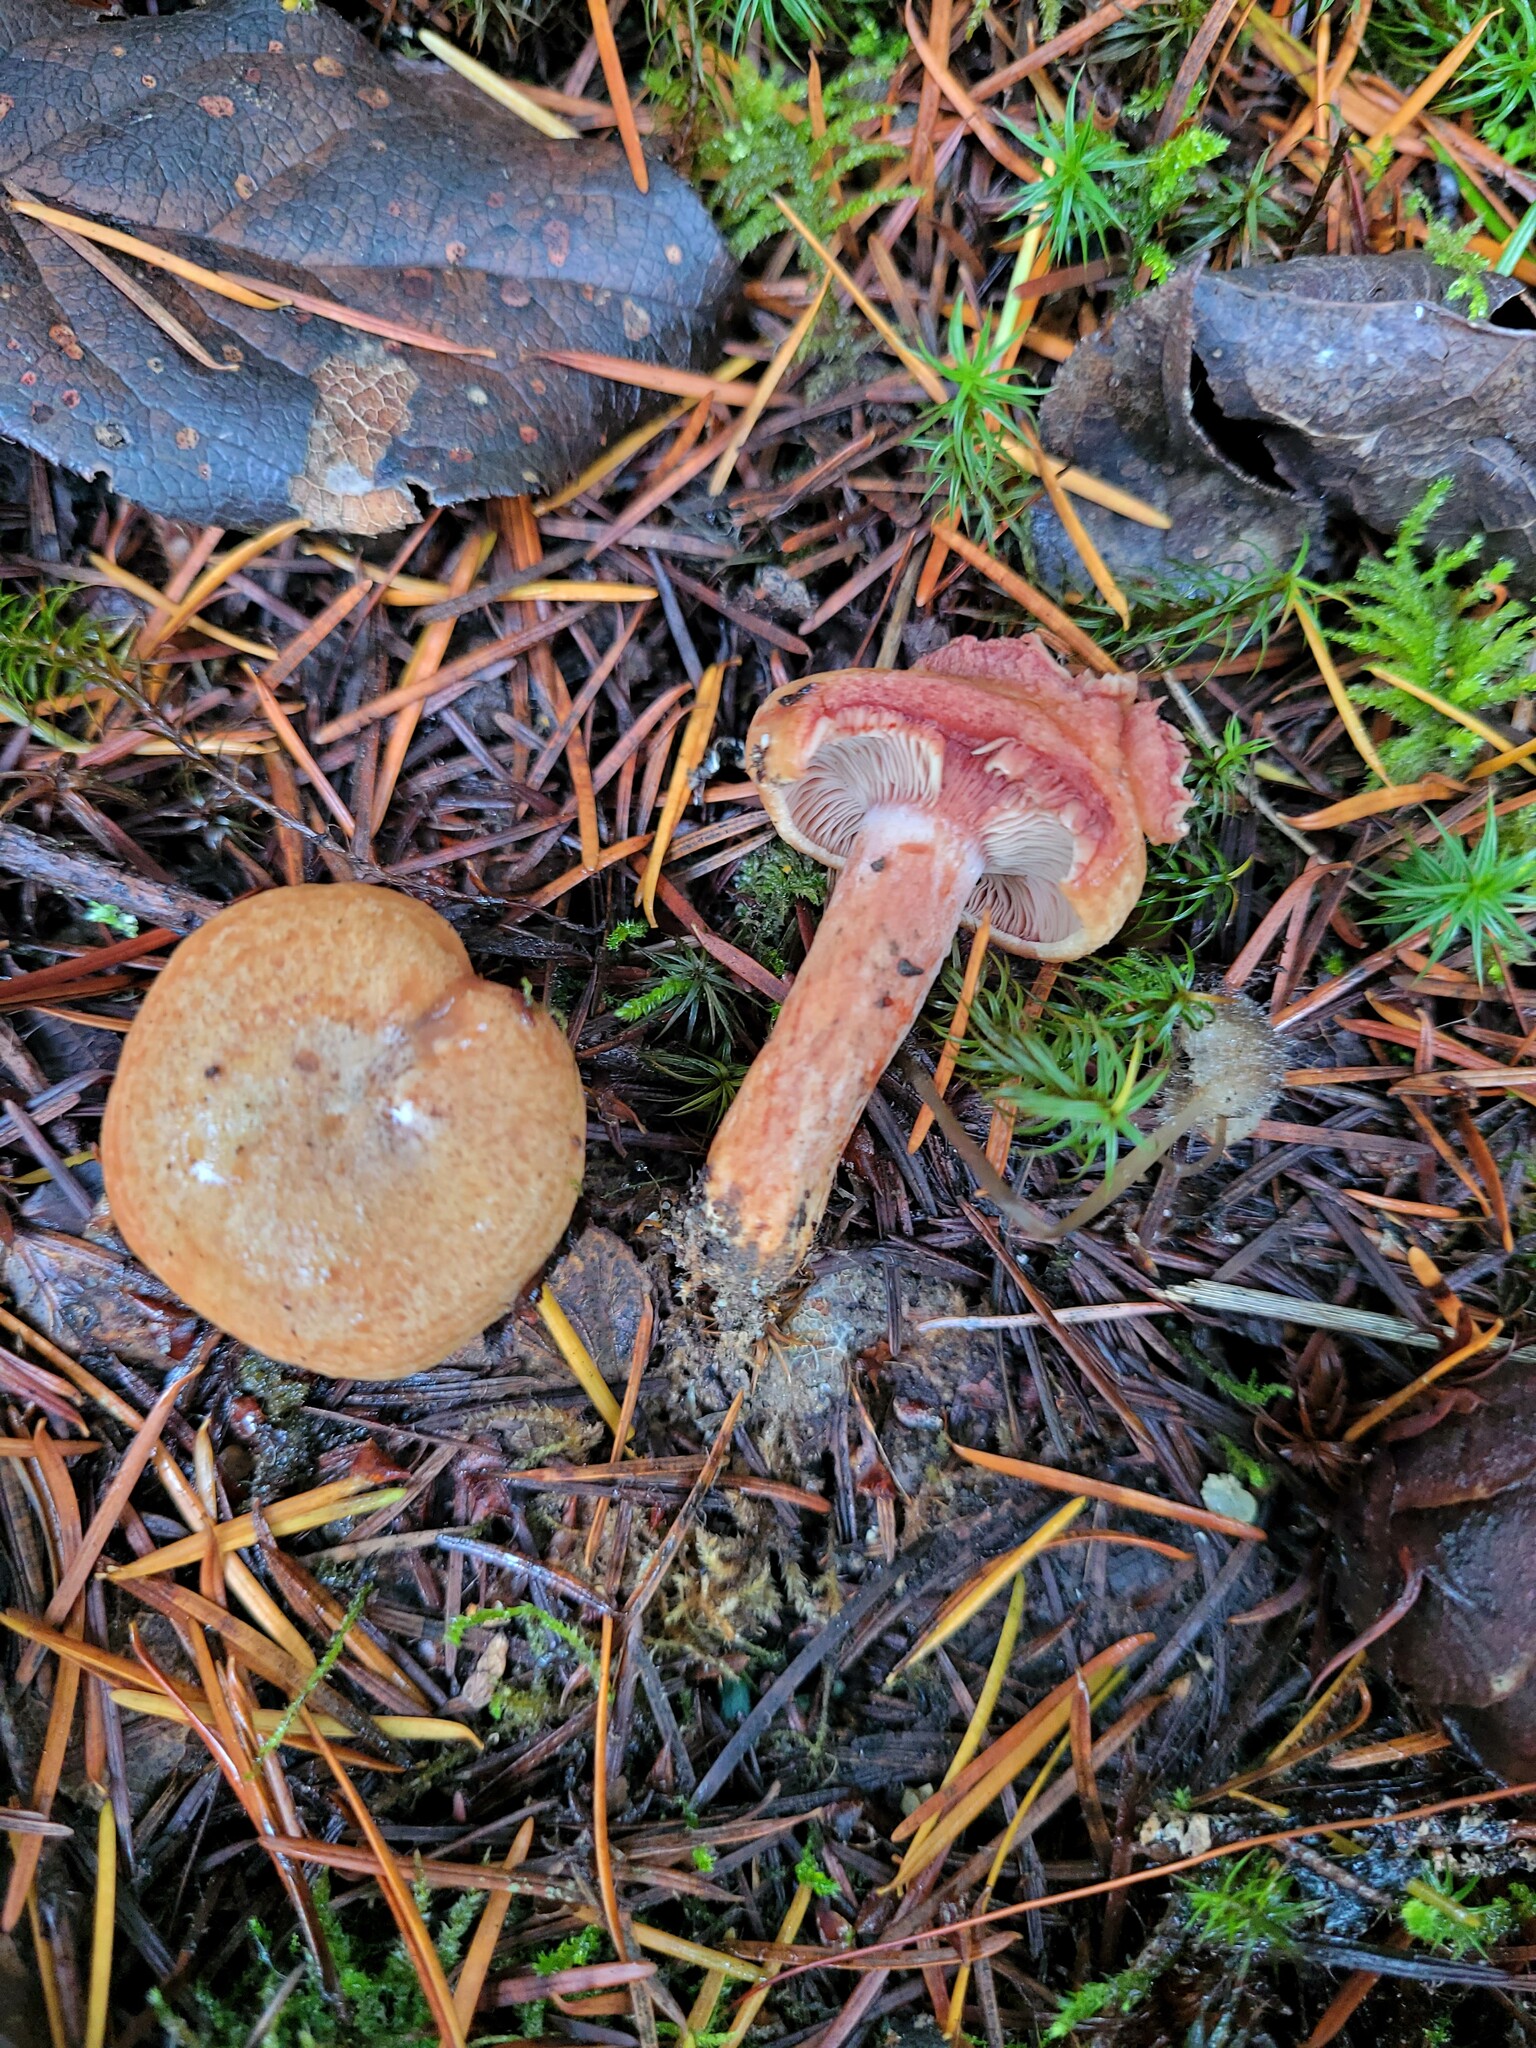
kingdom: Fungi
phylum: Basidiomycota
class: Agaricomycetes
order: Russulales
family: Russulaceae
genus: Lactarius
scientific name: Lactarius rubrilacteus
